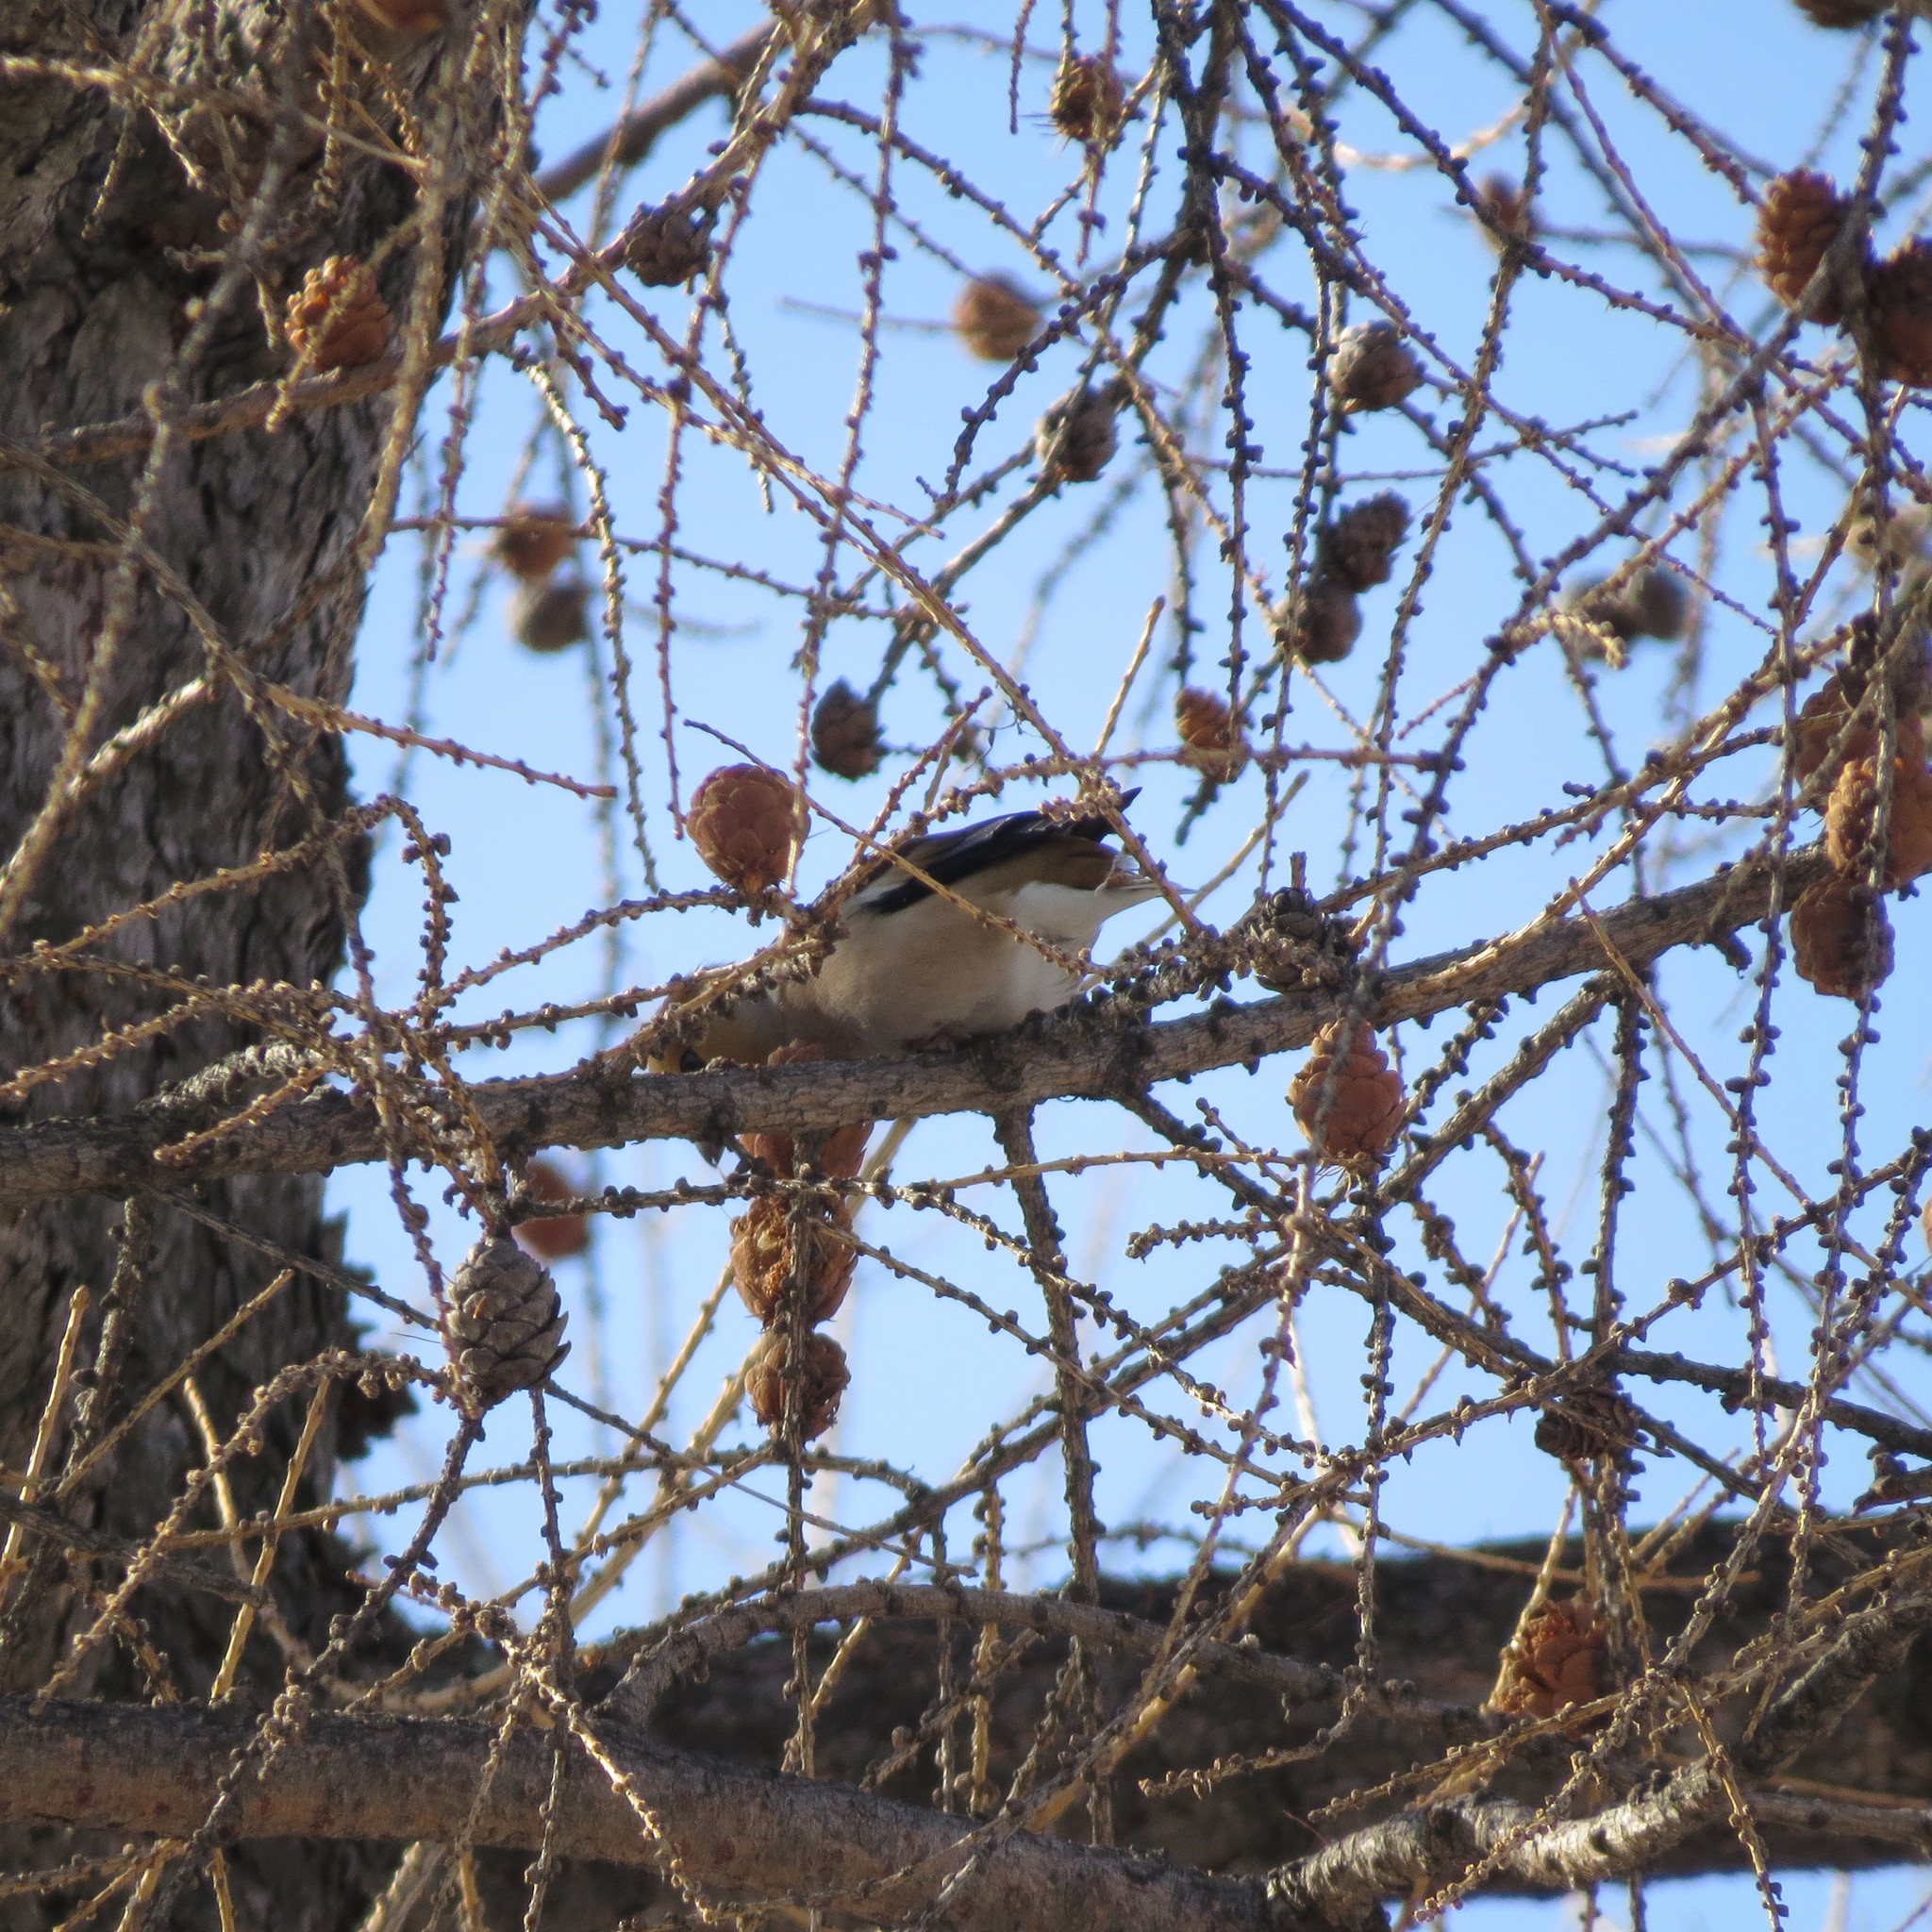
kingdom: Animalia
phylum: Chordata
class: Aves
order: Passeriformes
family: Fringillidae
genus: Coccothraustes
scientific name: Coccothraustes coccothraustes
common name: Hawfinch
